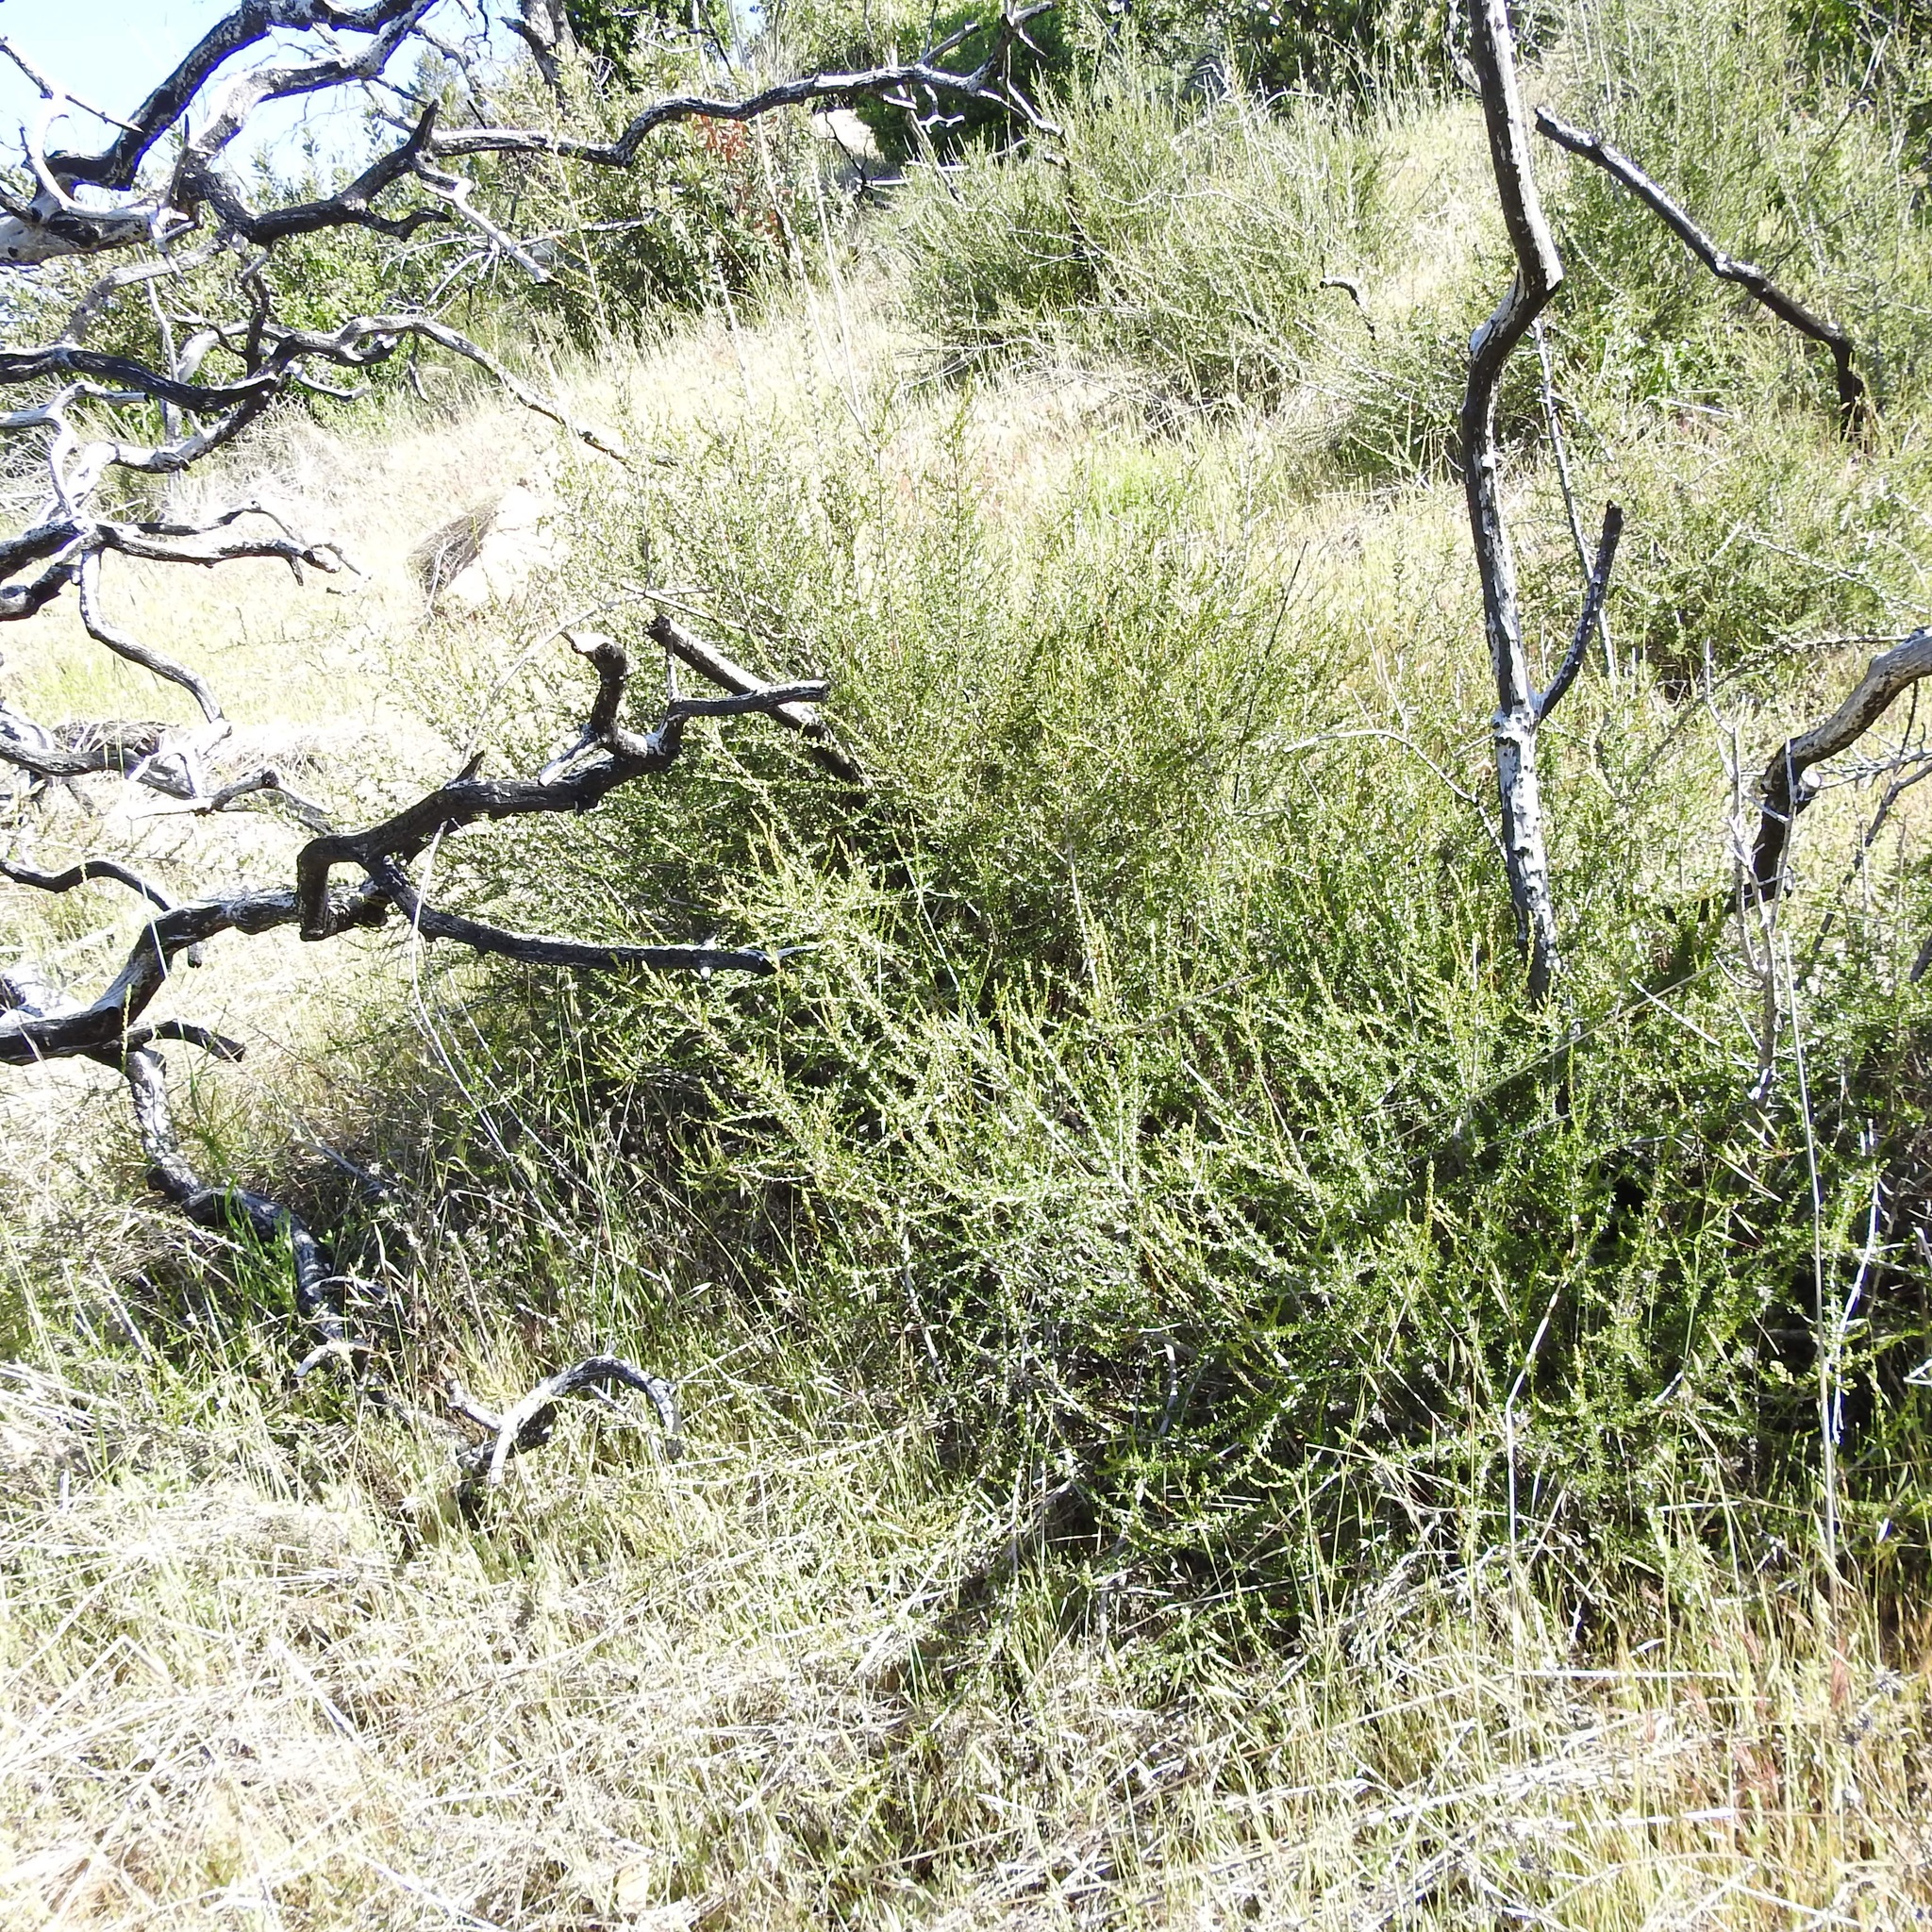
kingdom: Plantae
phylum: Tracheophyta
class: Magnoliopsida
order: Rosales
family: Rosaceae
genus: Adenostoma
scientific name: Adenostoma fasciculatum
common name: Chamise
